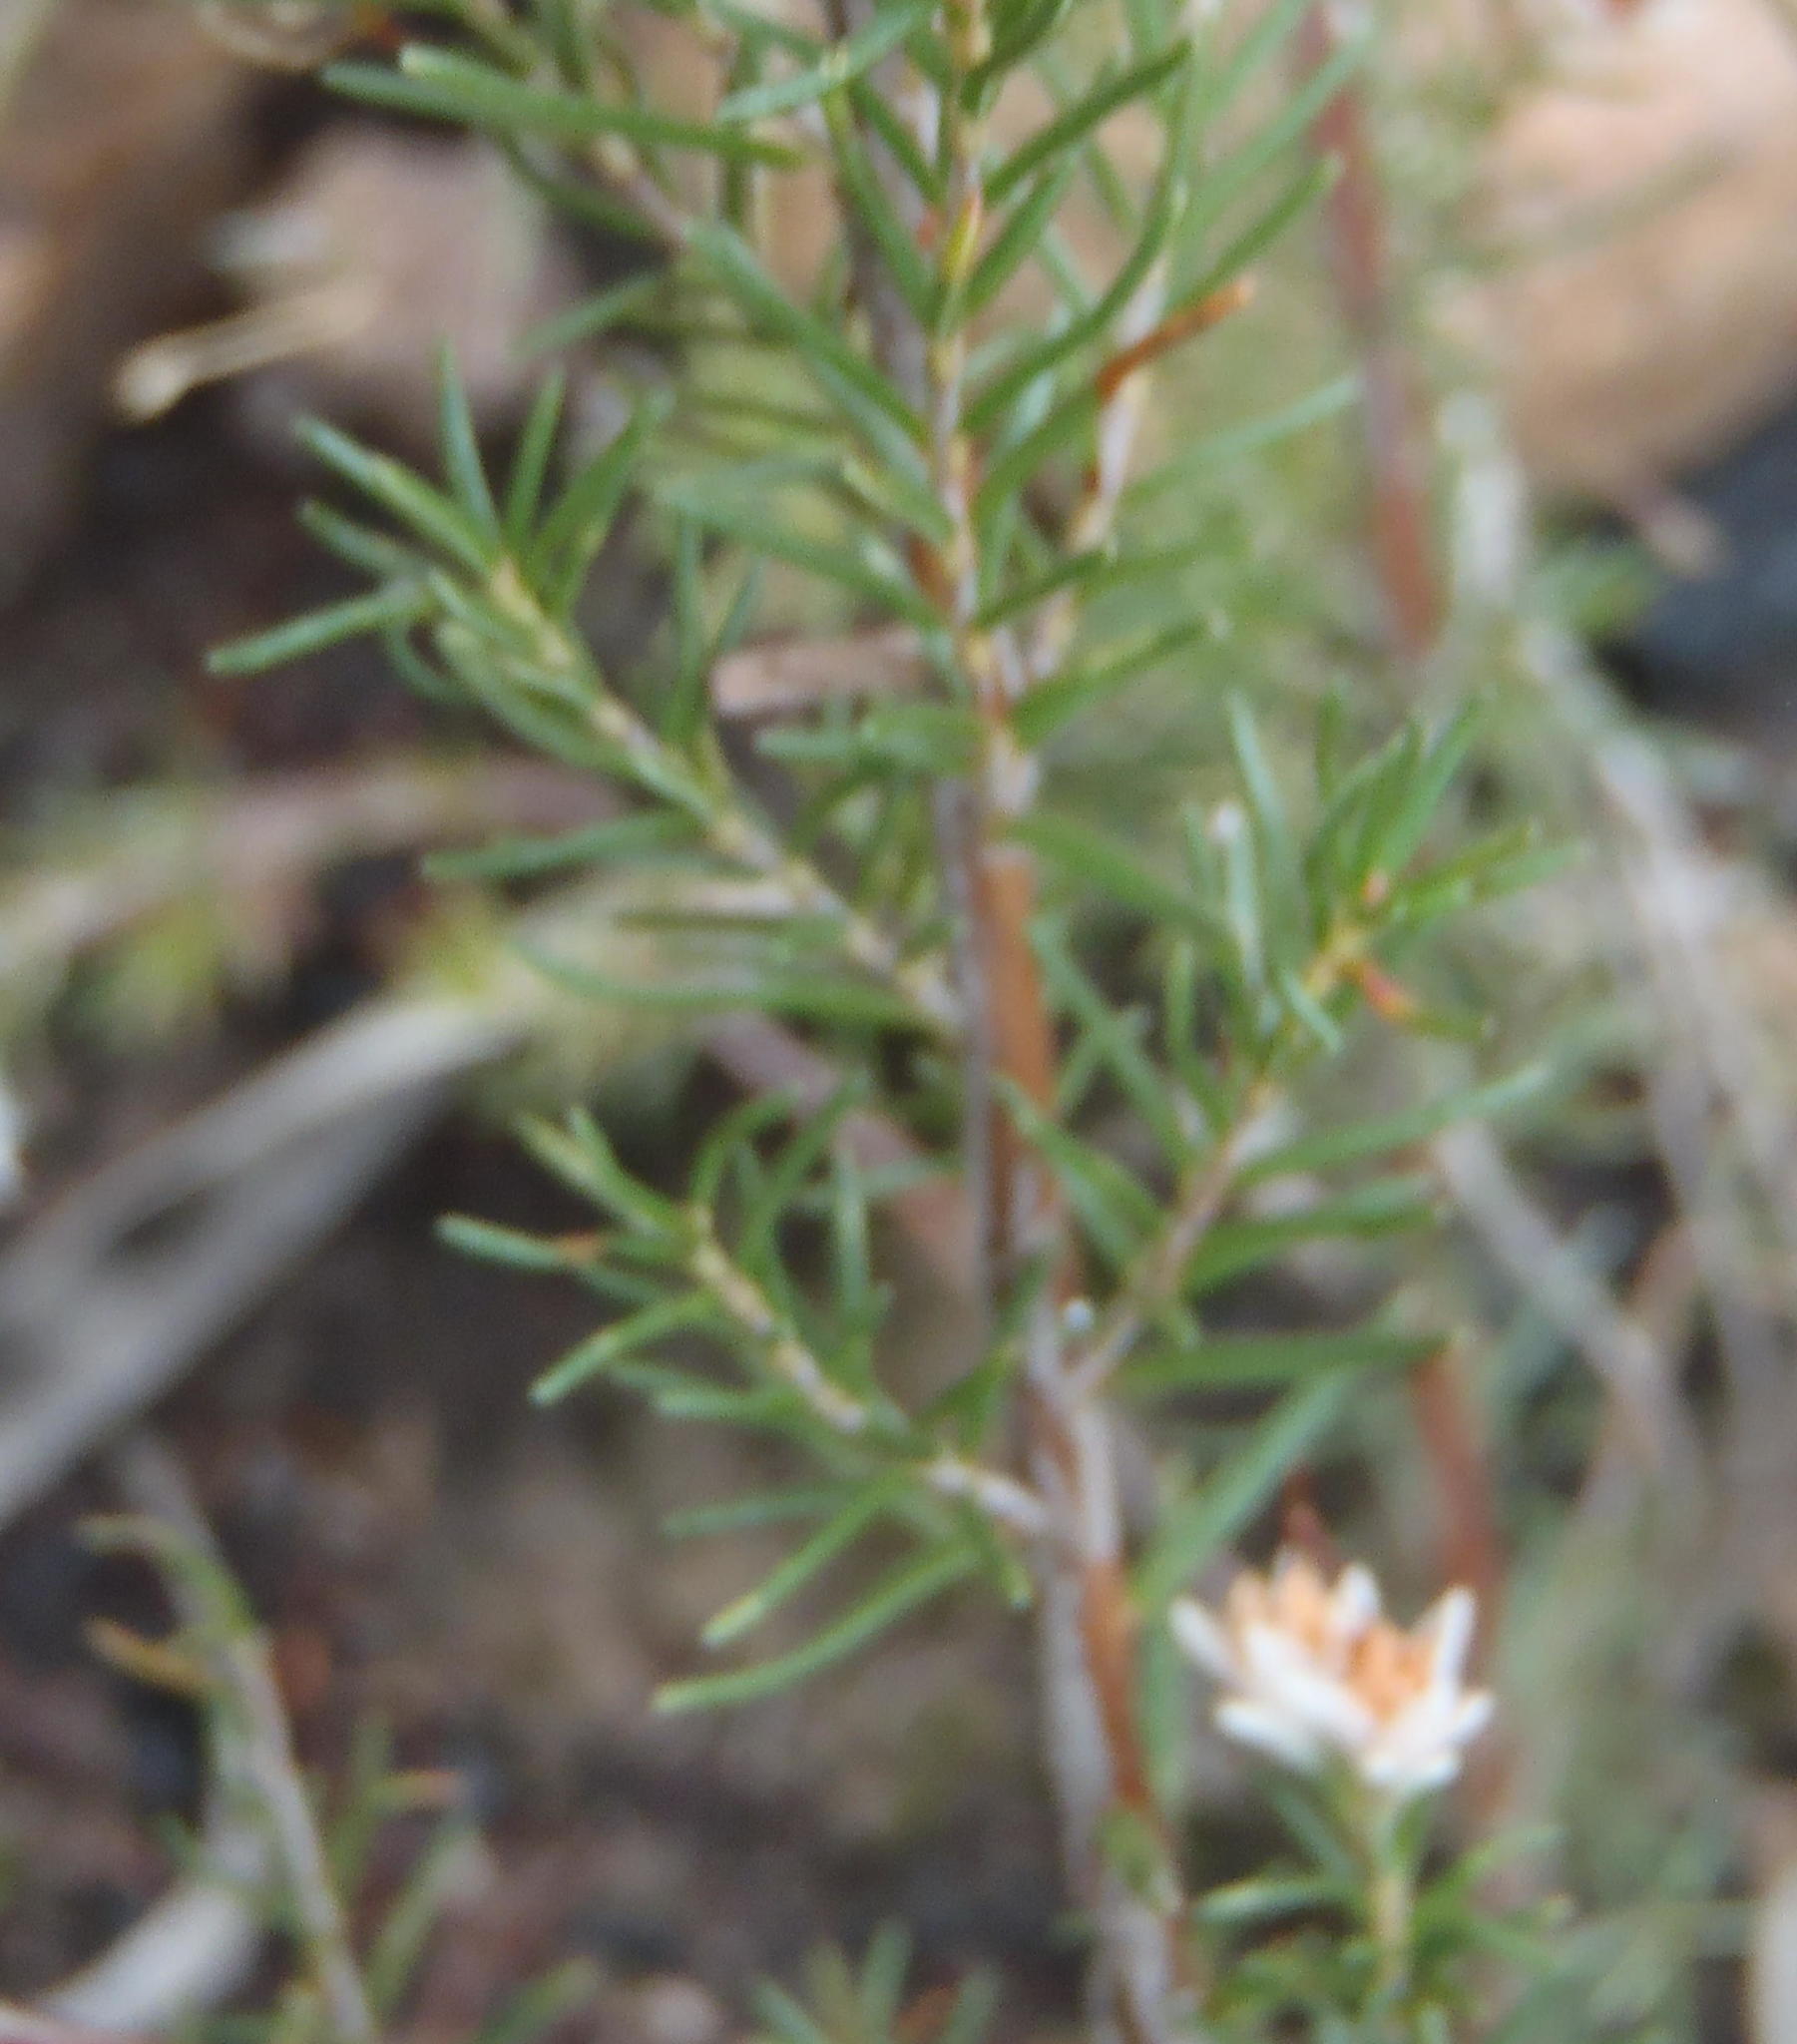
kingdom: Plantae
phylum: Tracheophyta
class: Magnoliopsida
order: Ericales
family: Ericaceae
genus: Erica
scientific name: Erica orientalis
